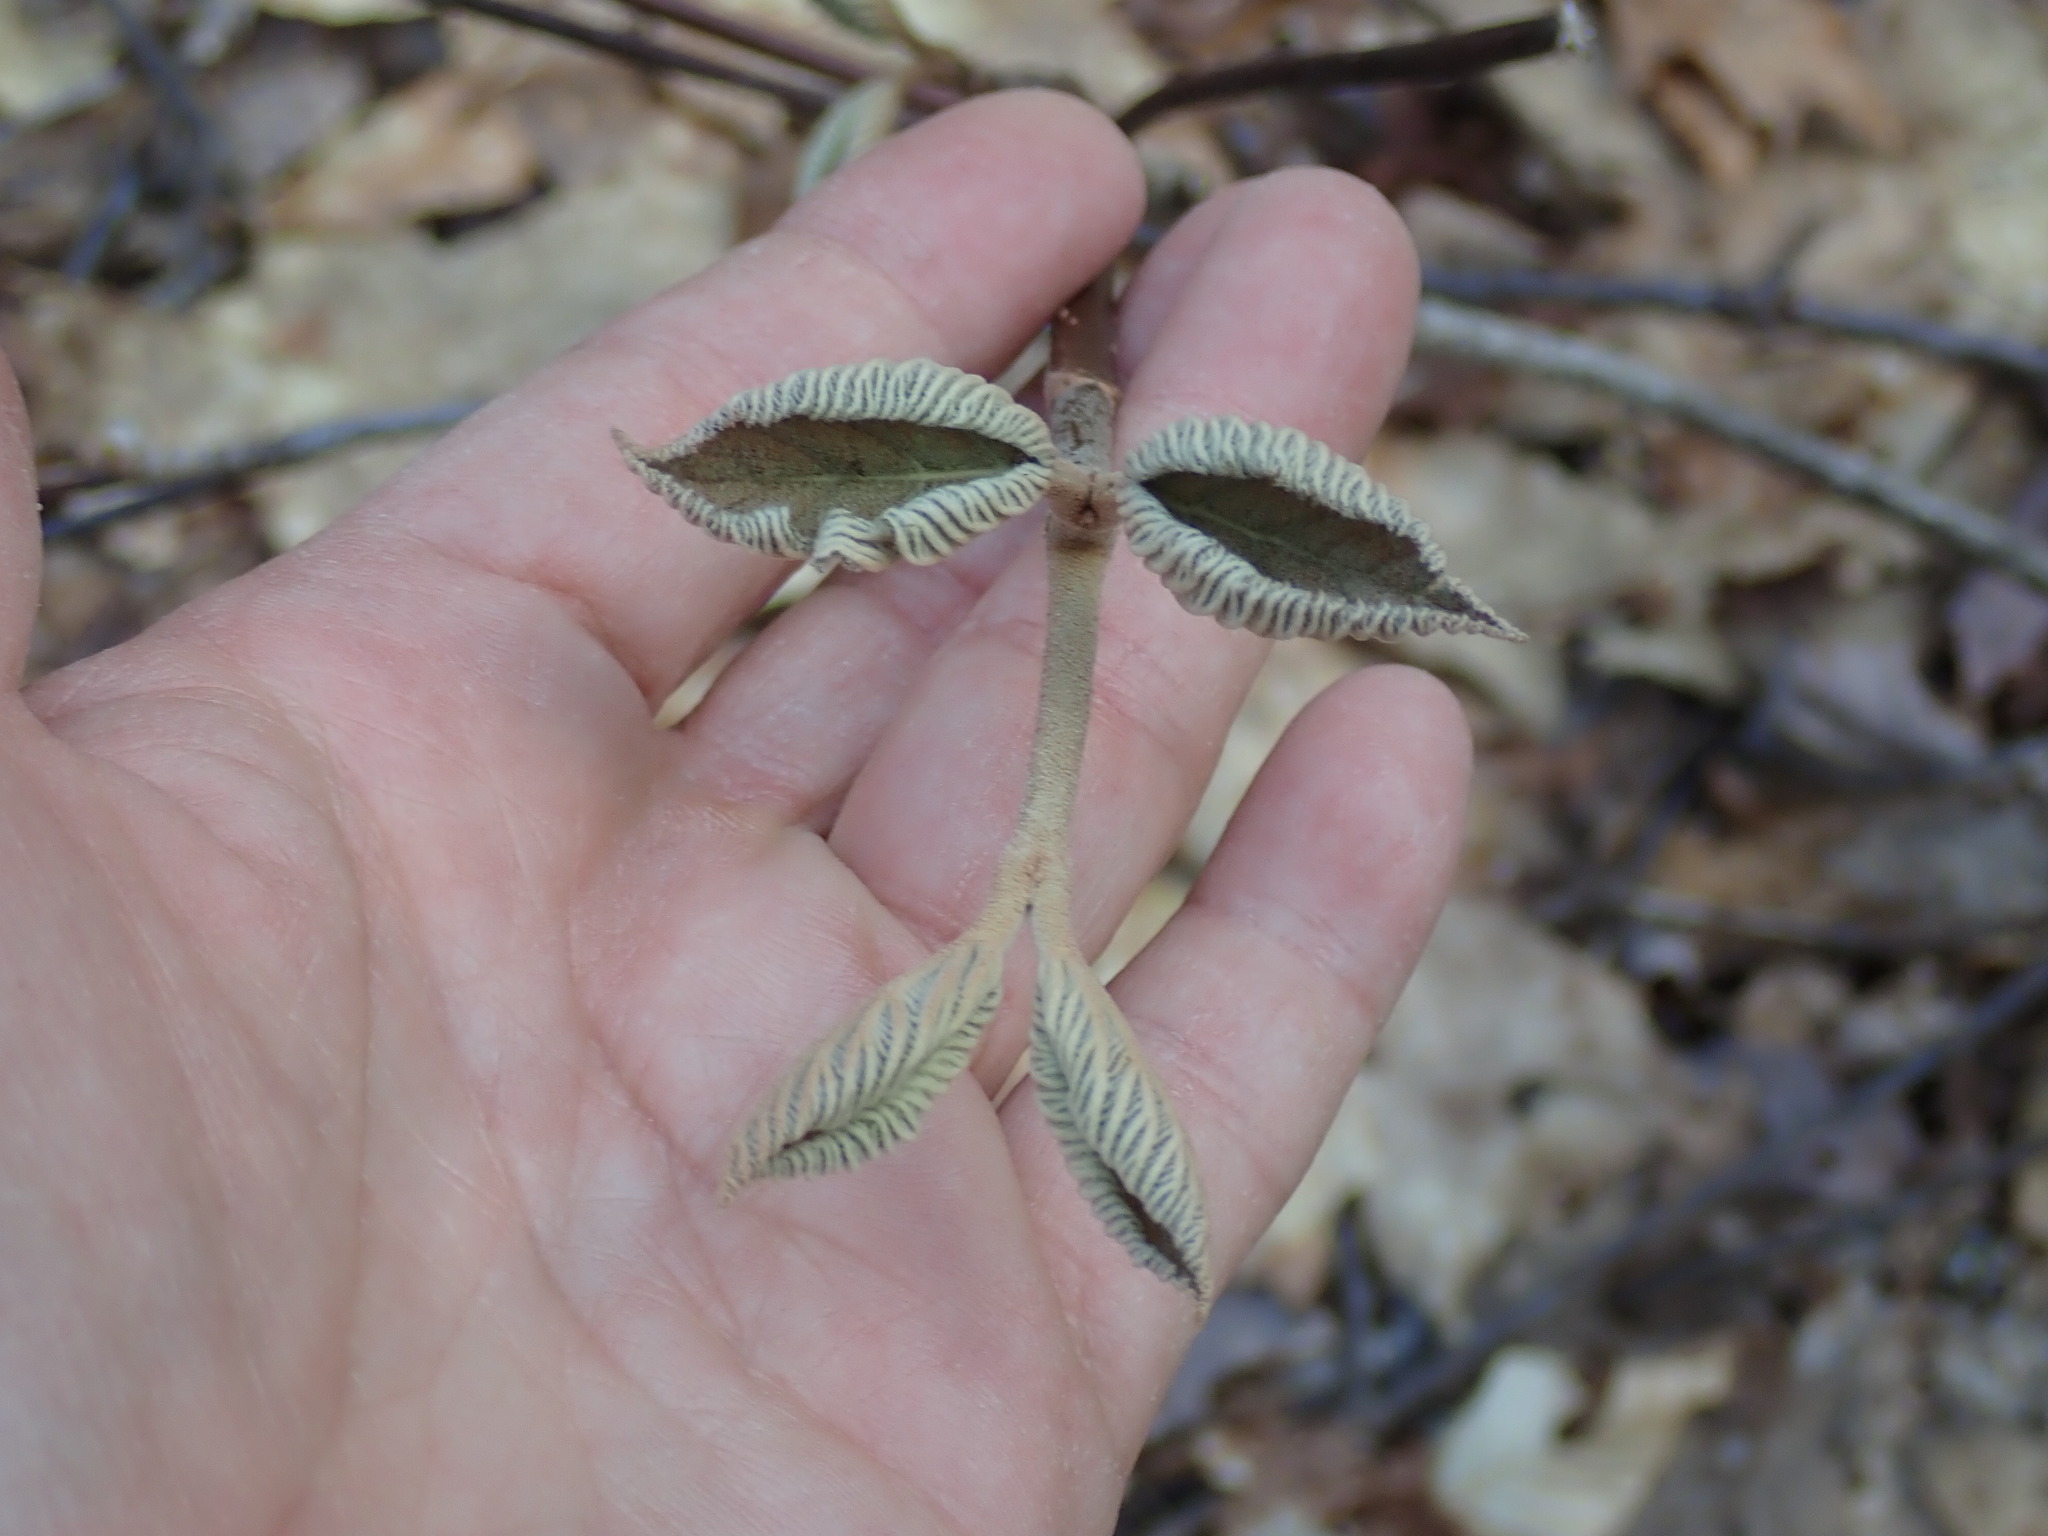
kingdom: Plantae
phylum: Tracheophyta
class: Magnoliopsida
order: Dipsacales
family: Viburnaceae
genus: Viburnum
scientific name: Viburnum lantanoides
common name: Hobblebush
